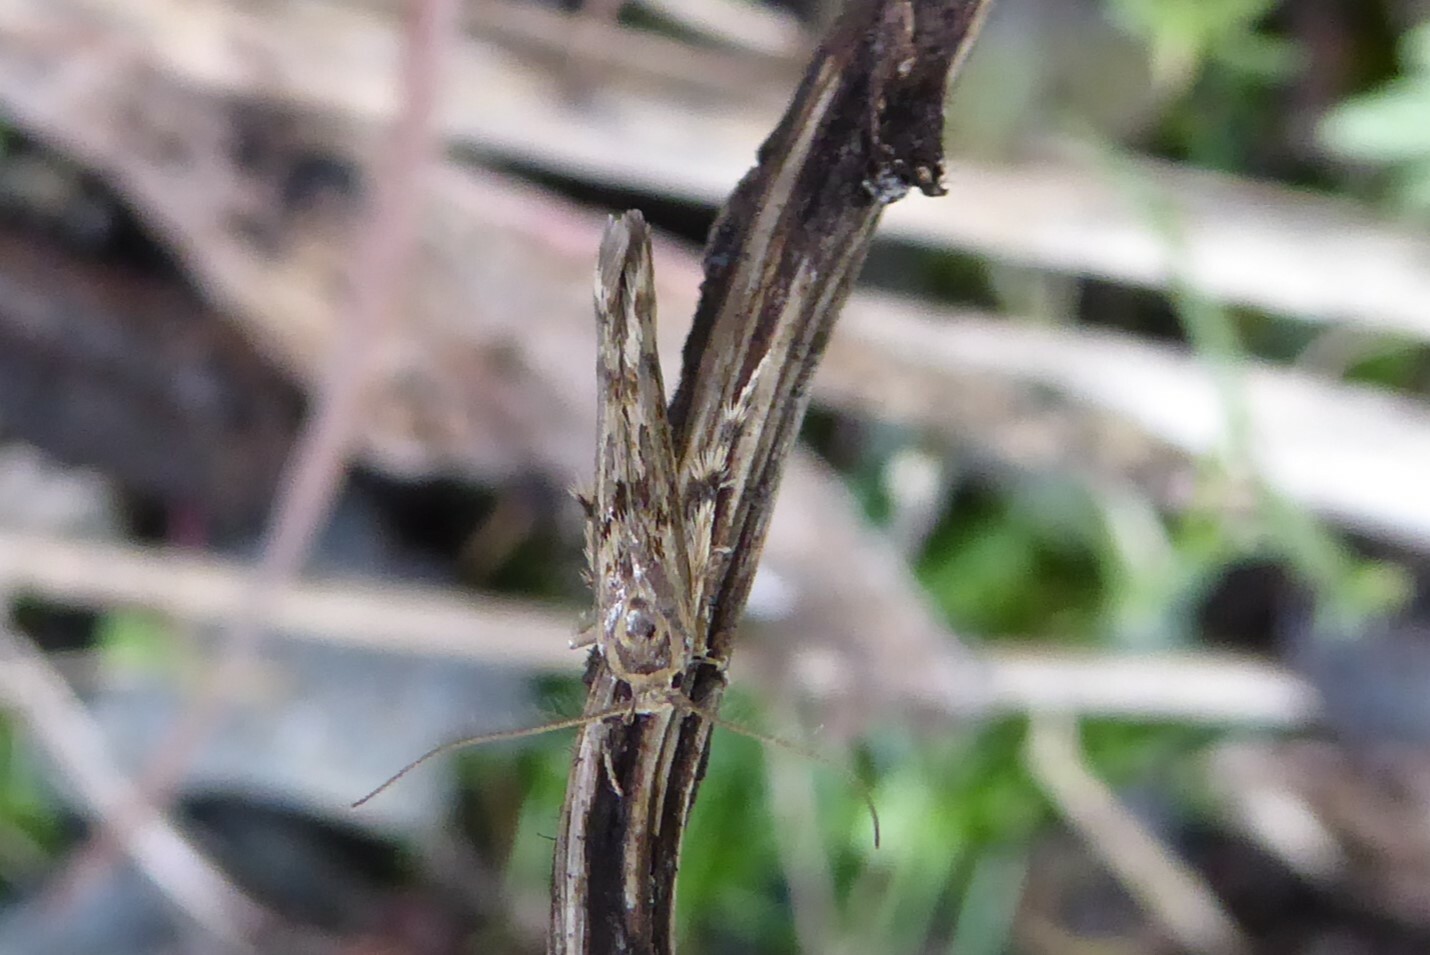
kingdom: Animalia
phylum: Arthropoda
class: Insecta
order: Lepidoptera
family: Stathmopodidae
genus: Stathmopoda
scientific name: Stathmopoda plumbiflua
